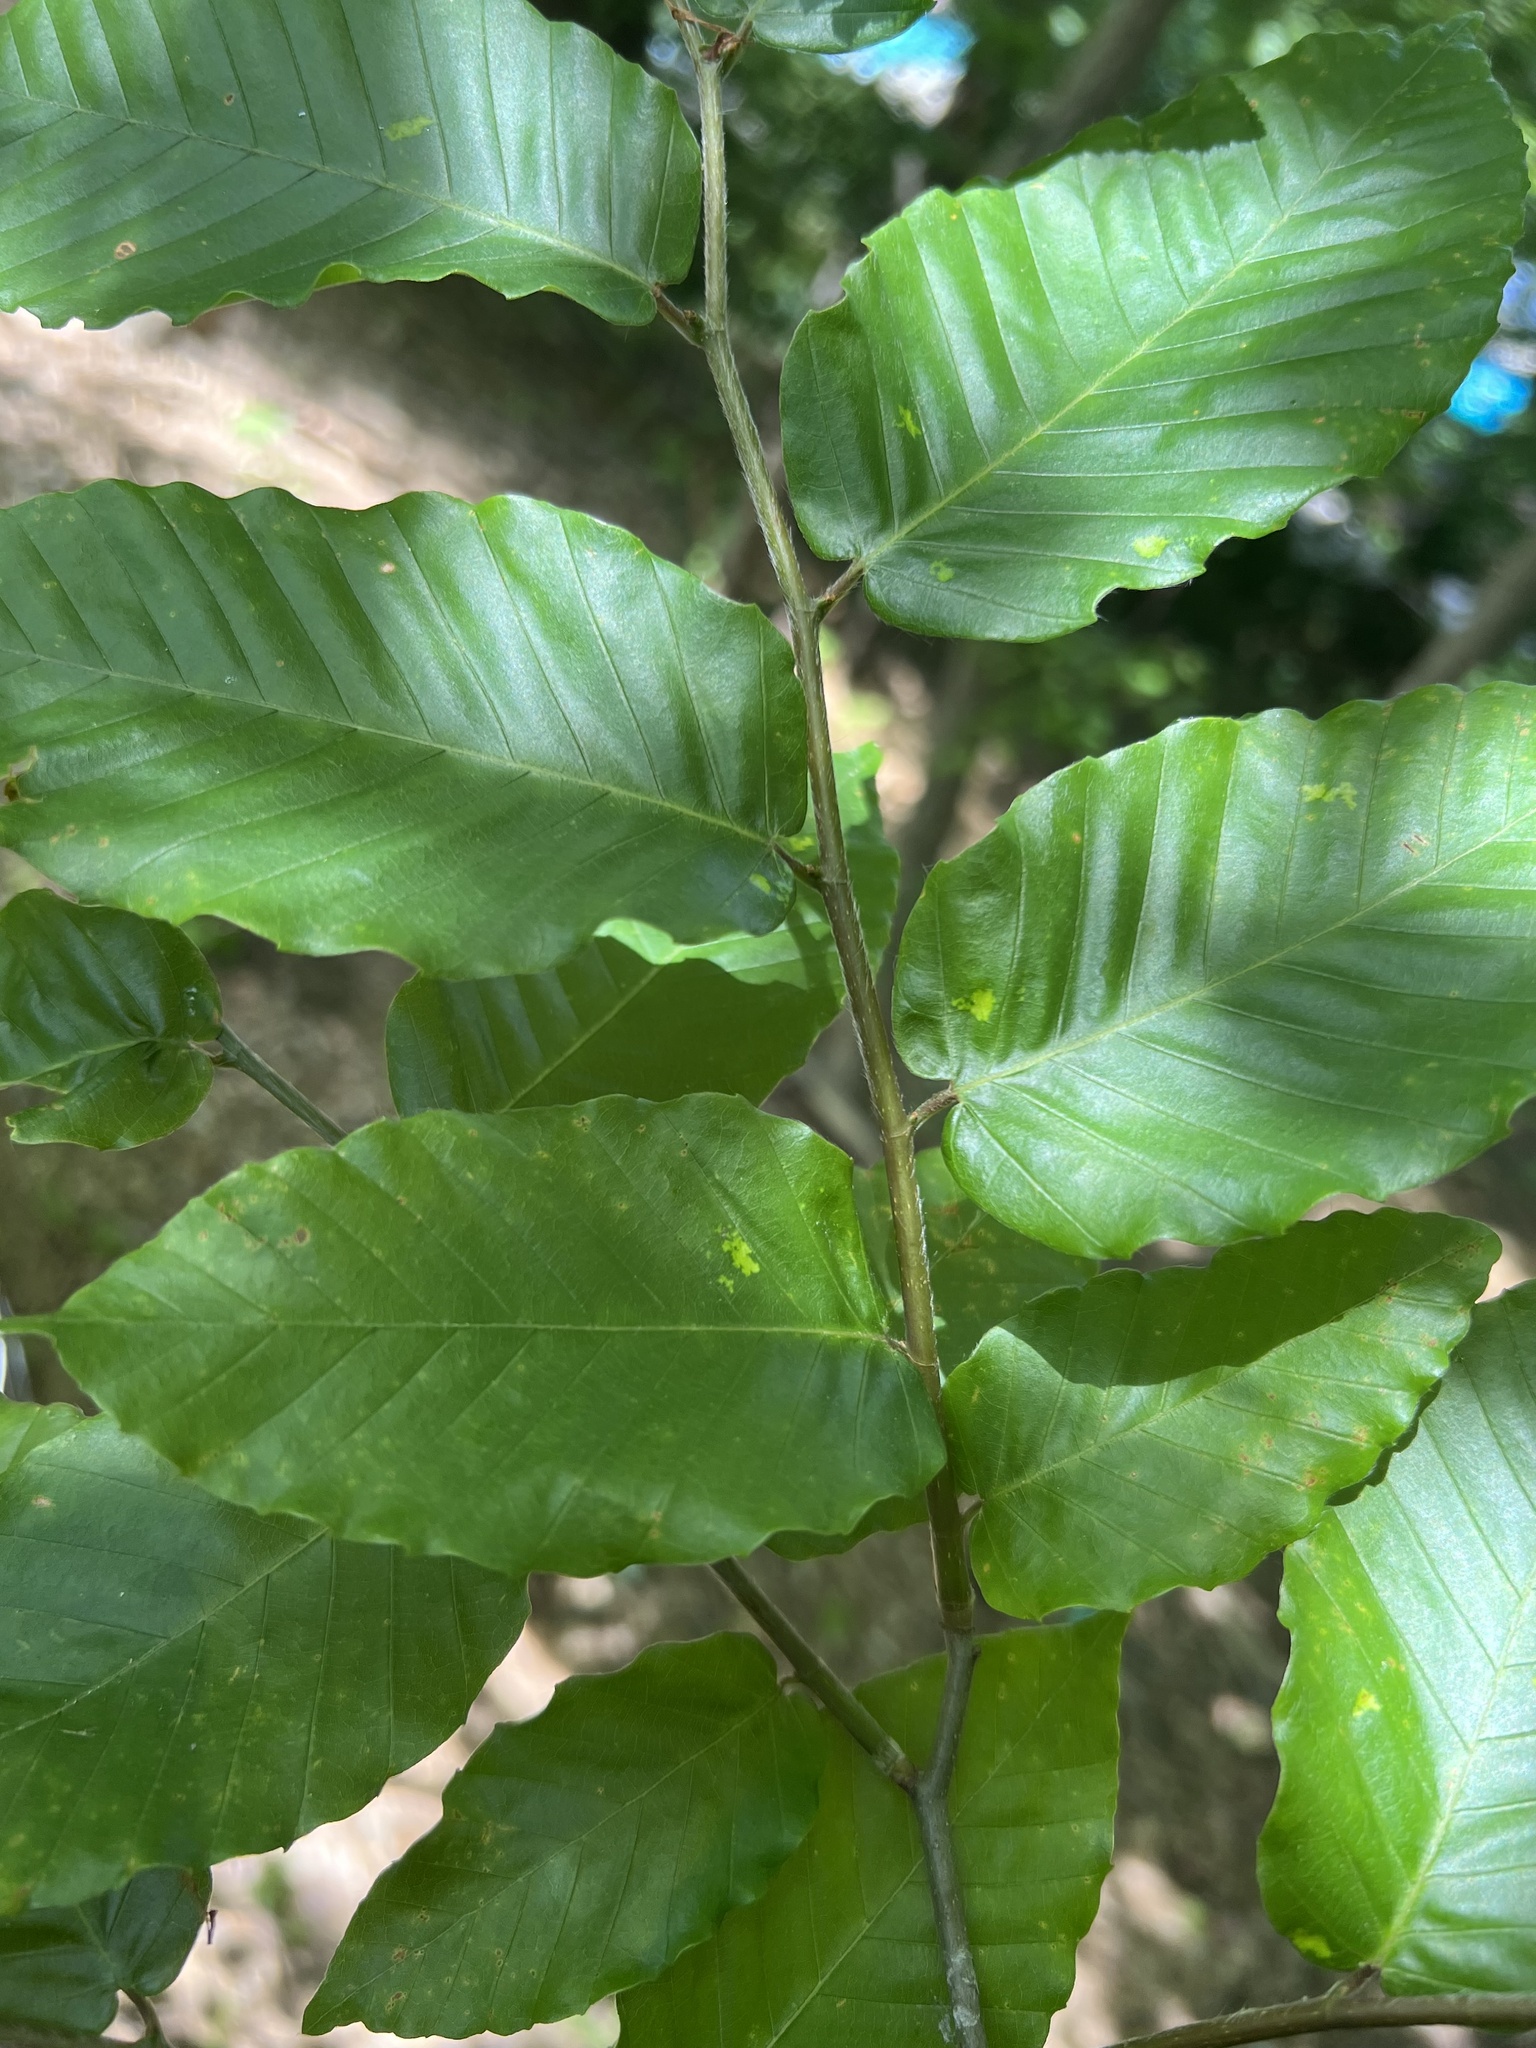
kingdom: Plantae
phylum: Tracheophyta
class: Magnoliopsida
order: Fagales
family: Fagaceae
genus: Fagus
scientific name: Fagus grandifolia
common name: American beech
